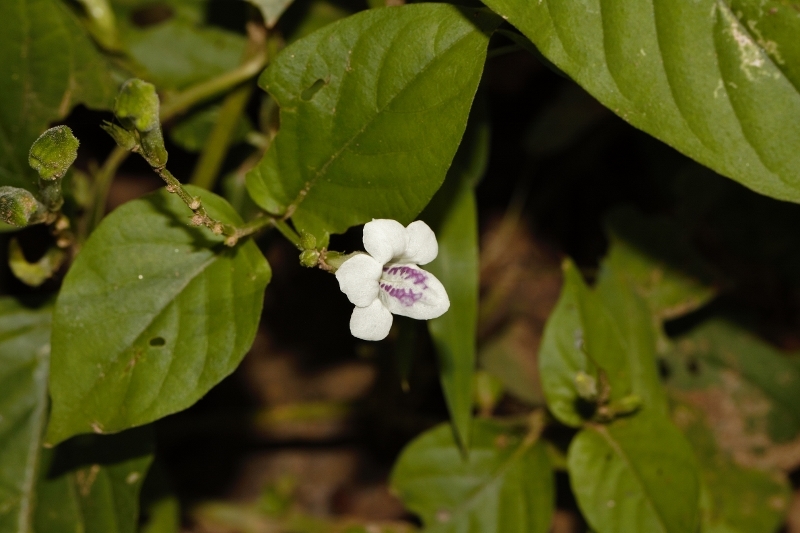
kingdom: Plantae
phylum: Tracheophyta
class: Magnoliopsida
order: Lamiales
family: Acanthaceae
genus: Asystasia
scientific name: Asystasia intrusa
